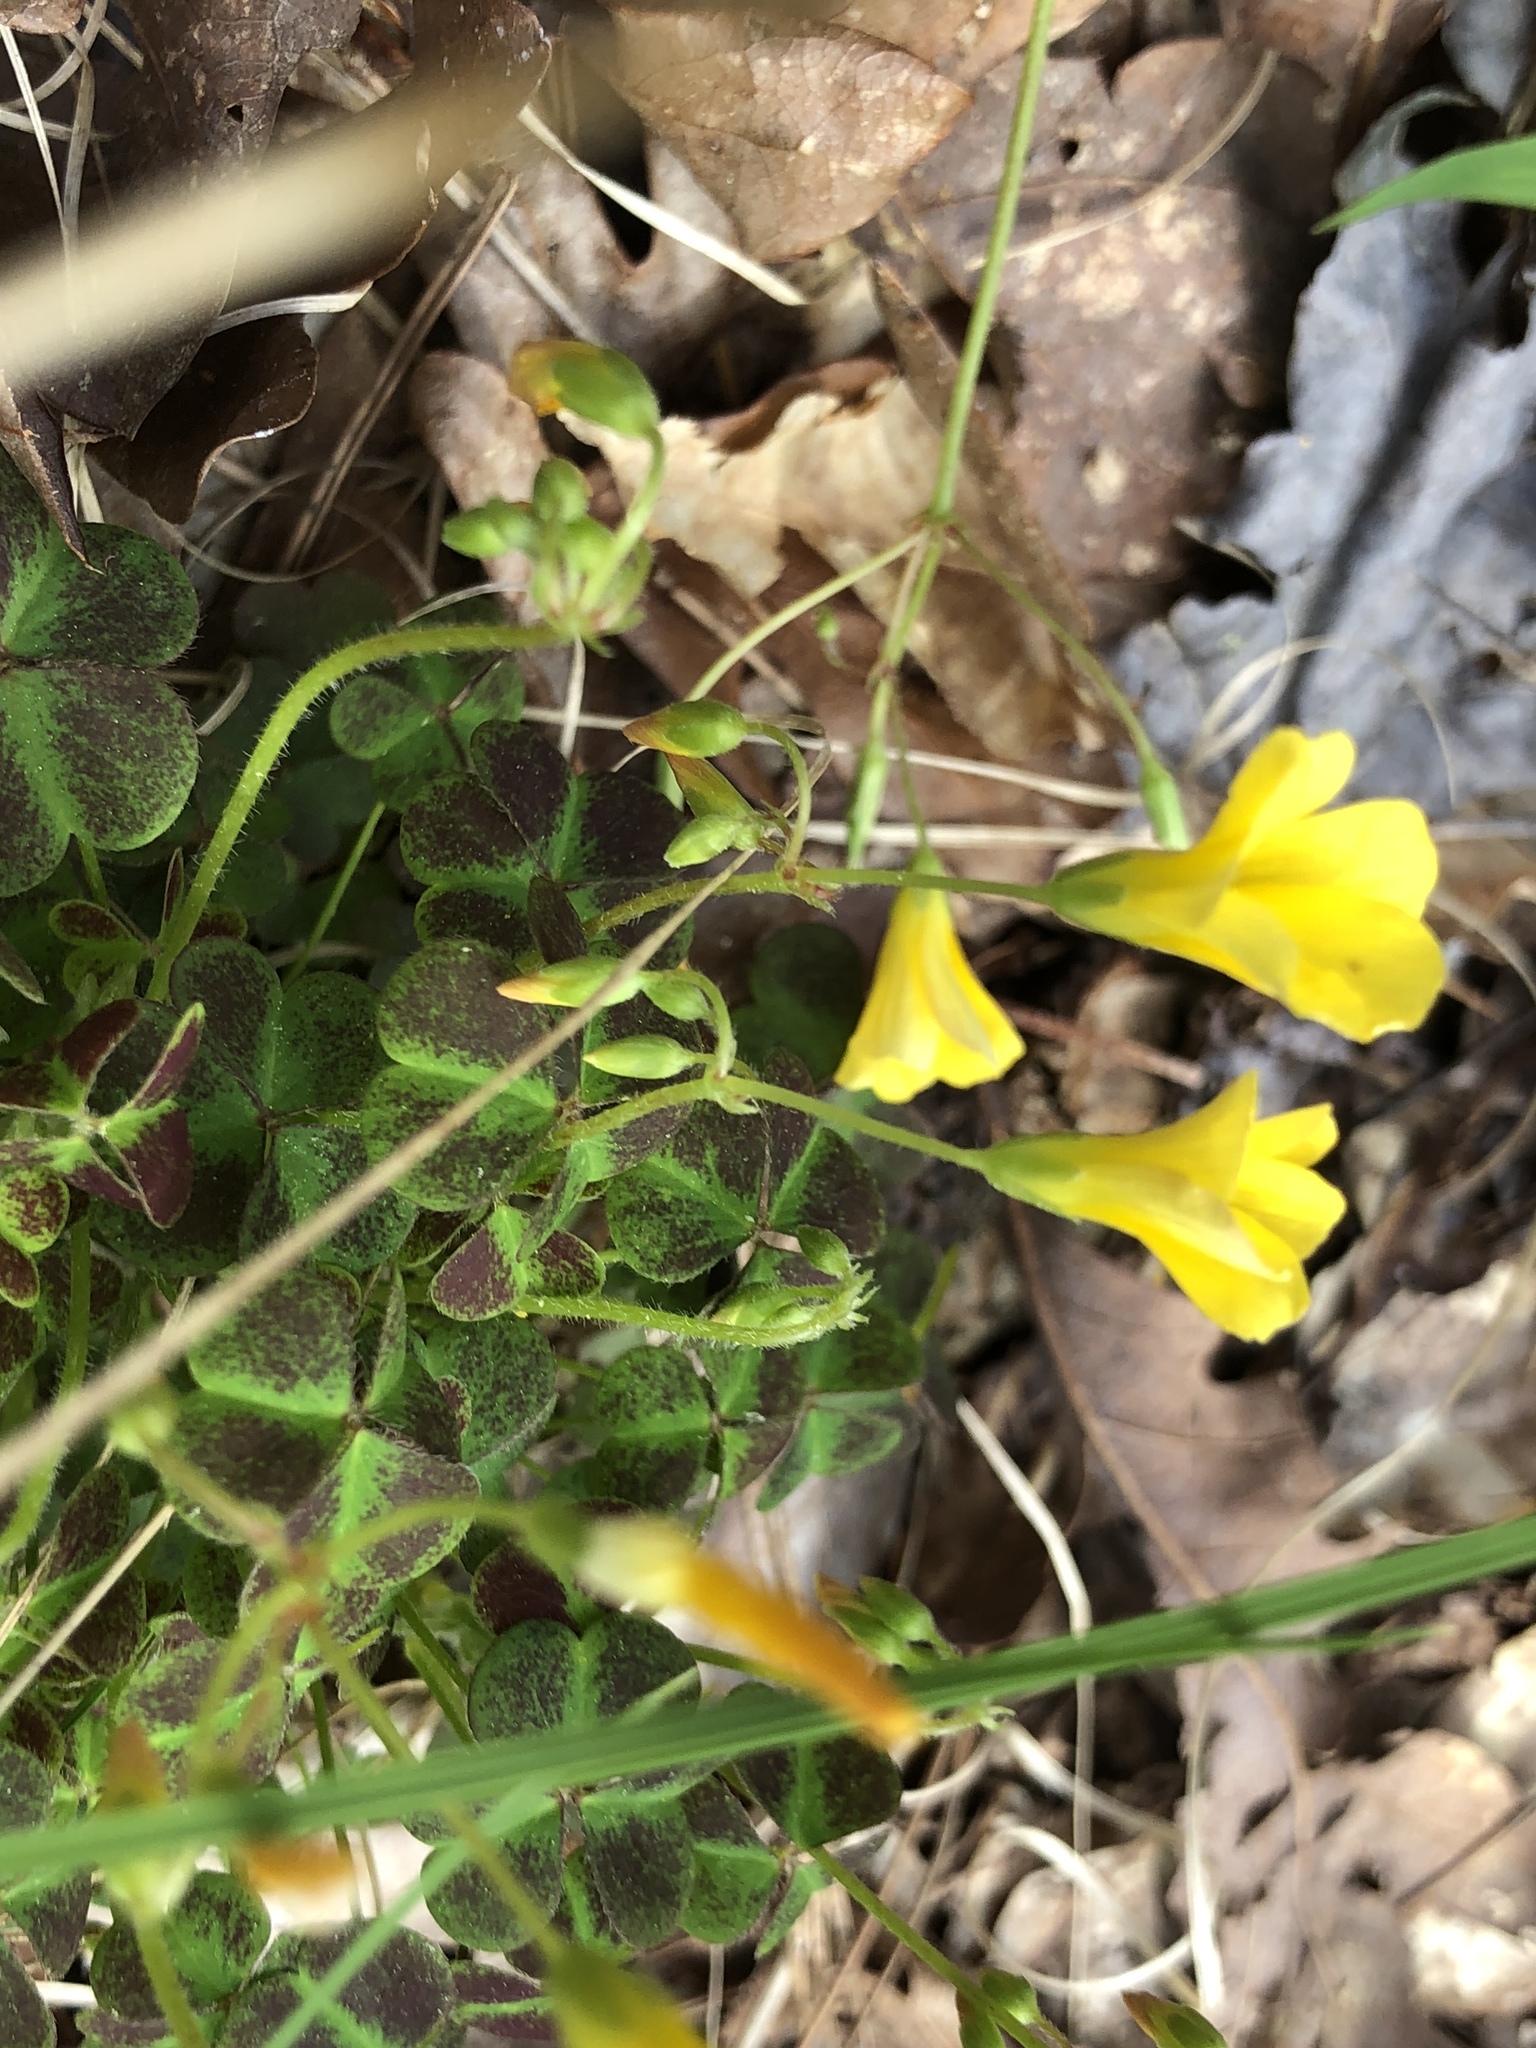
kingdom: Plantae
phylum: Tracheophyta
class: Magnoliopsida
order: Oxalidales
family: Oxalidaceae
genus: Oxalis
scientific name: Oxalis colorea
